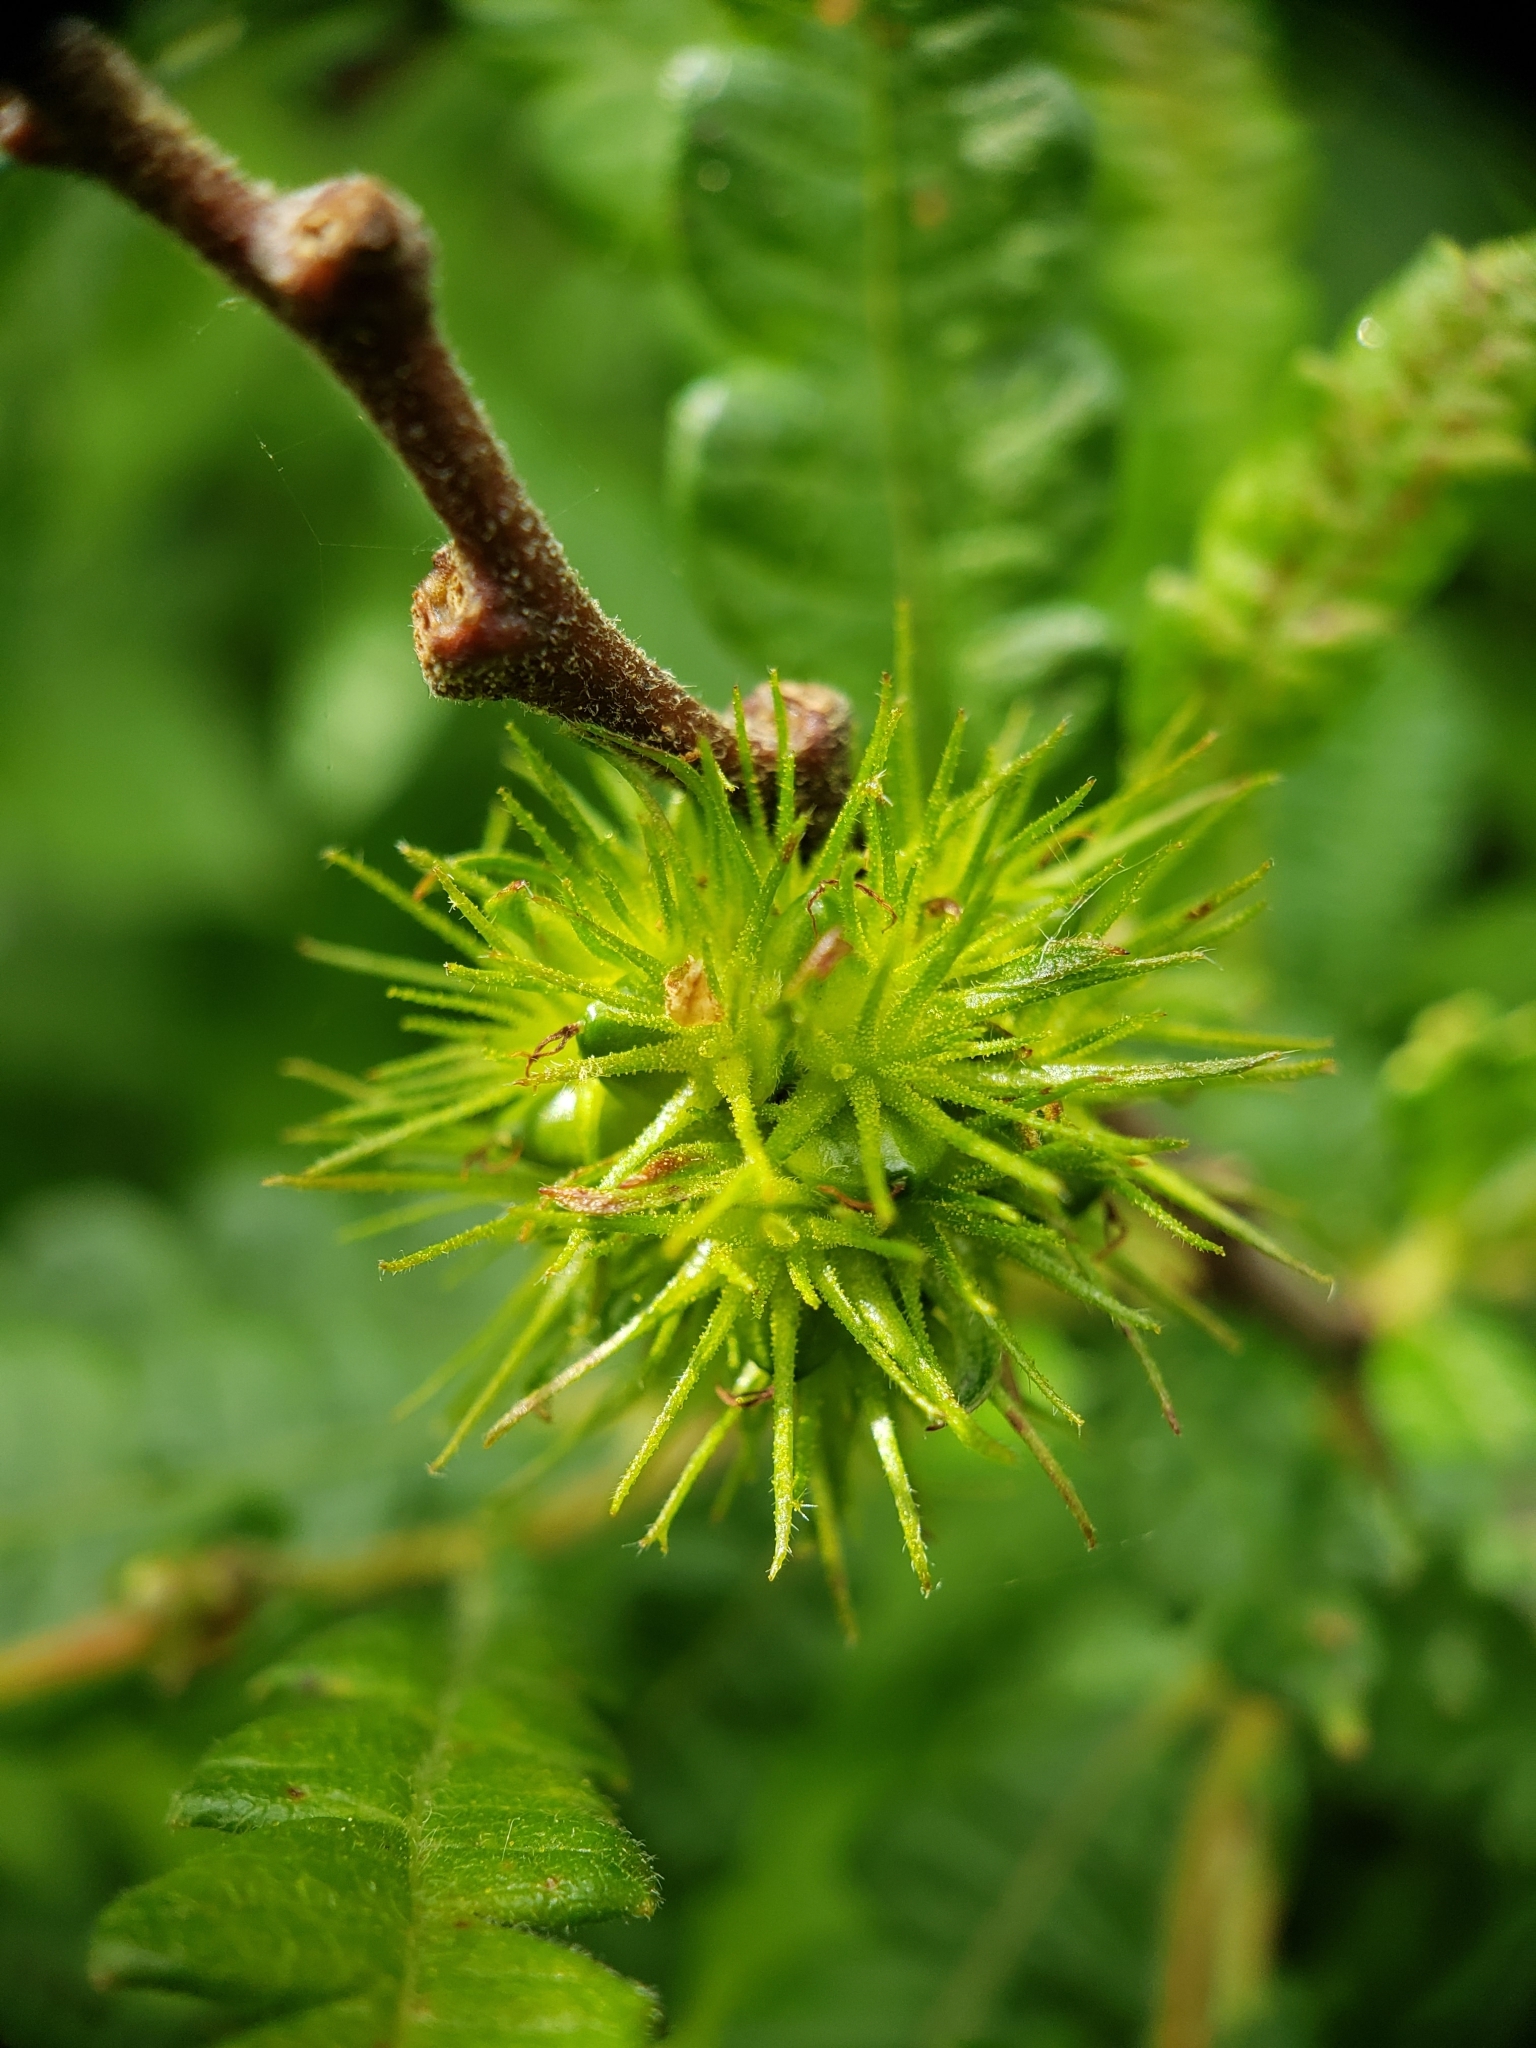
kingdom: Plantae
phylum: Tracheophyta
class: Magnoliopsida
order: Fagales
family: Myricaceae
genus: Comptonia
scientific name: Comptonia peregrina
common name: Sweet-fern
